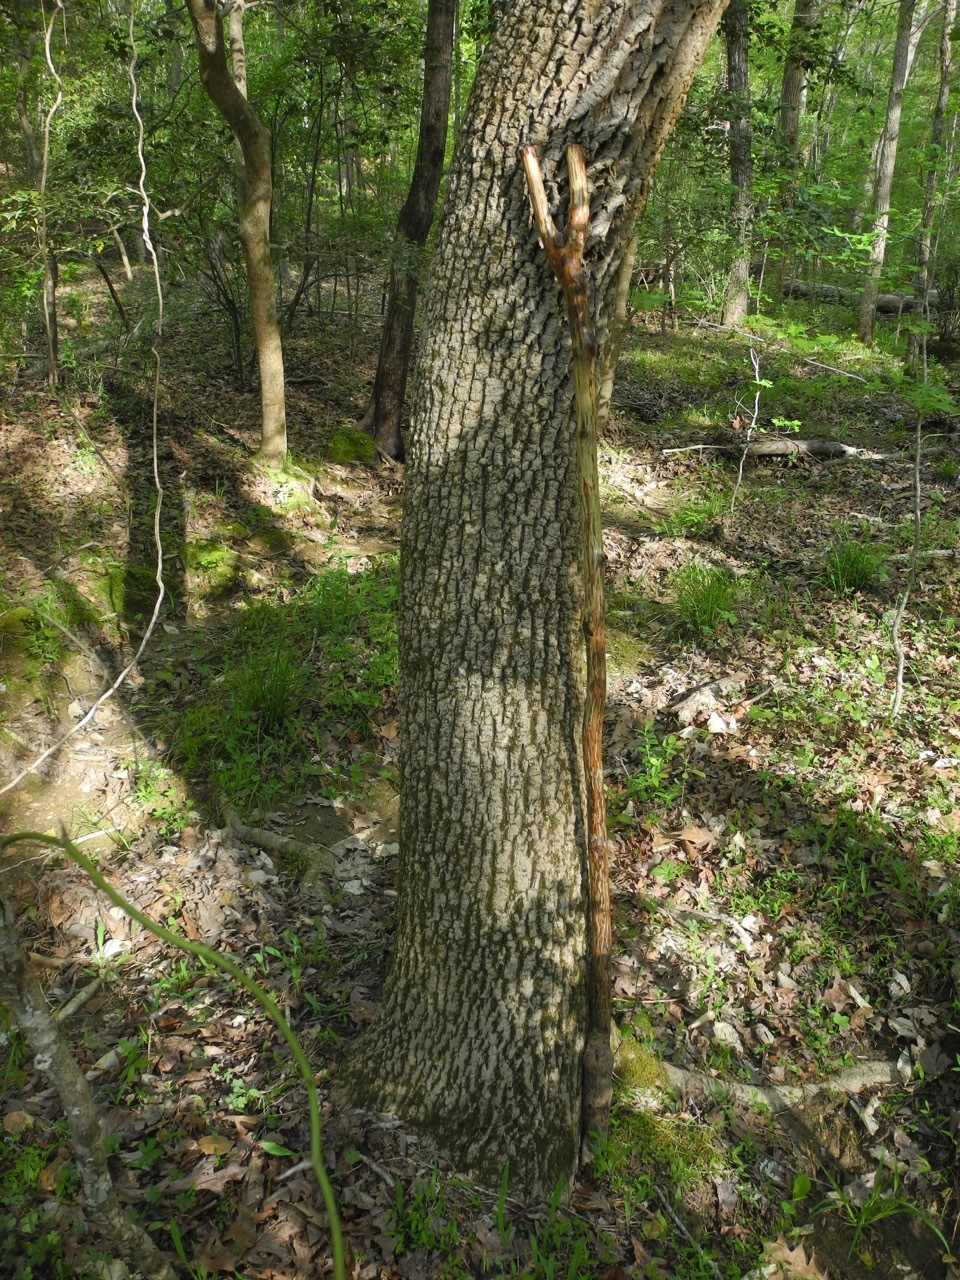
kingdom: Plantae
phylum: Tracheophyta
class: Magnoliopsida
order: Lamiales
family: Oleaceae
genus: Fraxinus
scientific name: Fraxinus pennsylvanica
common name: Green ash
